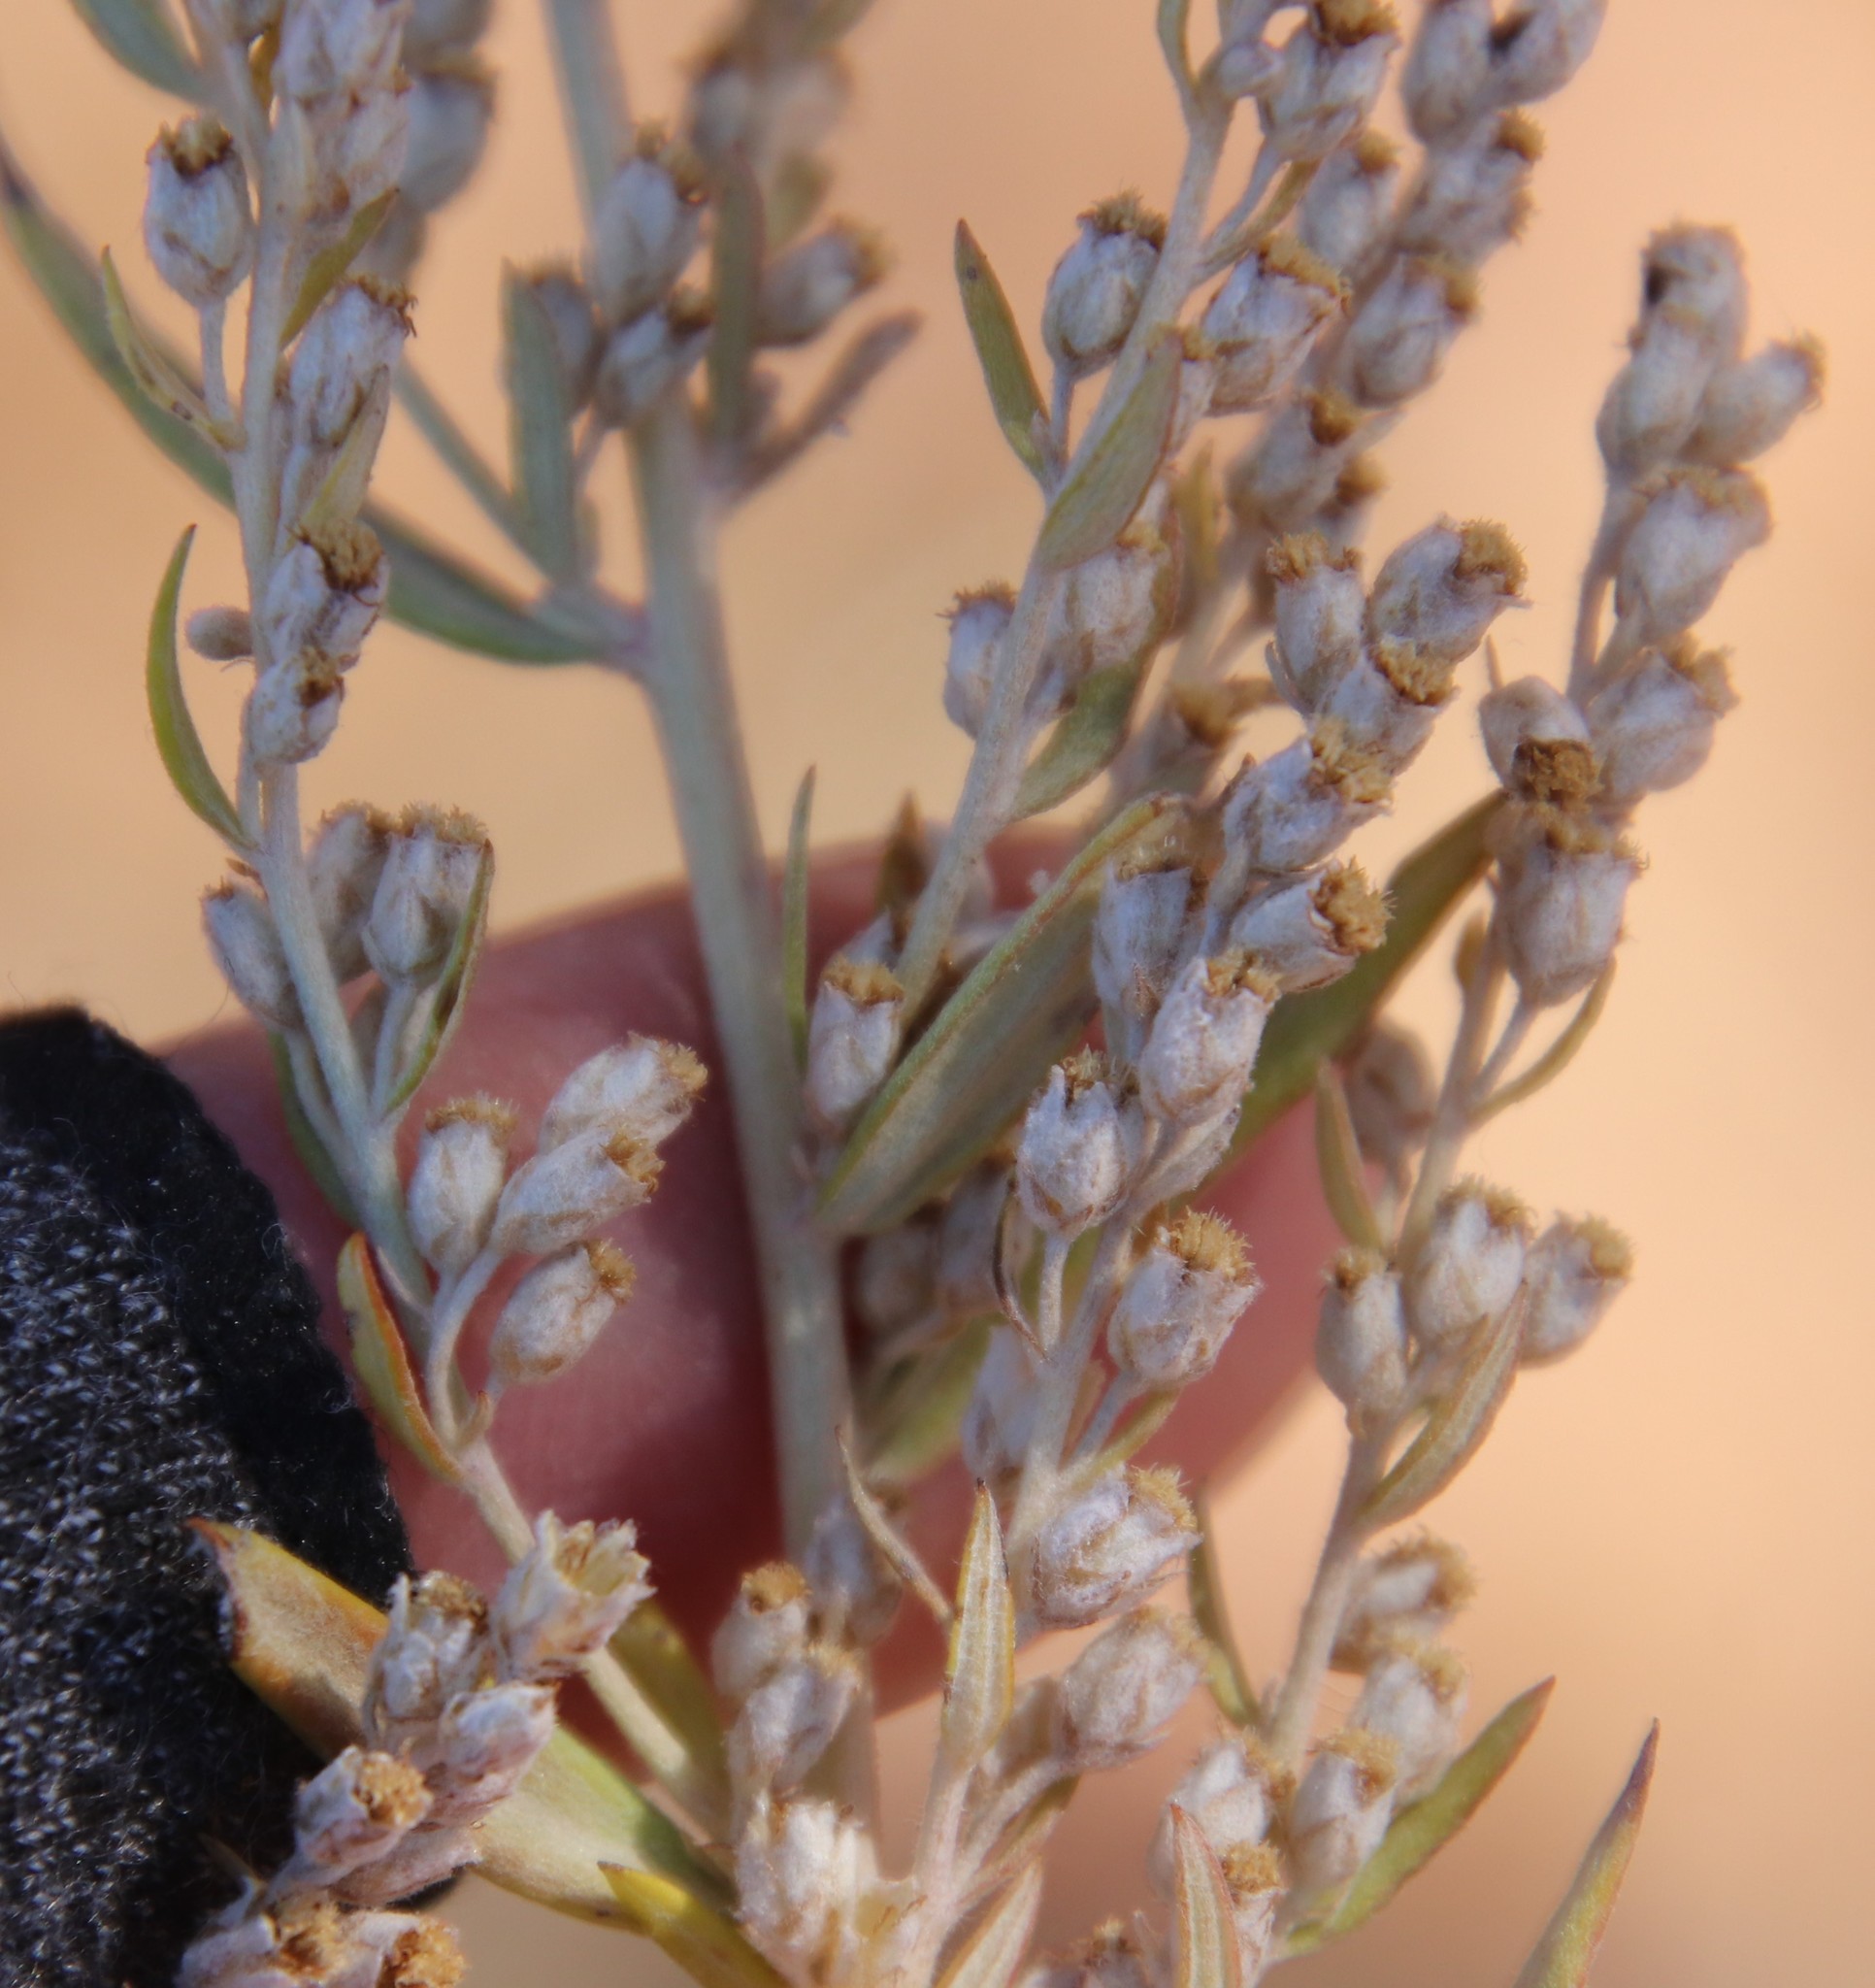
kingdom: Plantae
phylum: Tracheophyta
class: Magnoliopsida
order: Asterales
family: Asteraceae
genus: Artemisia
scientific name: Artemisia ludoviciana
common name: Western mugwort
